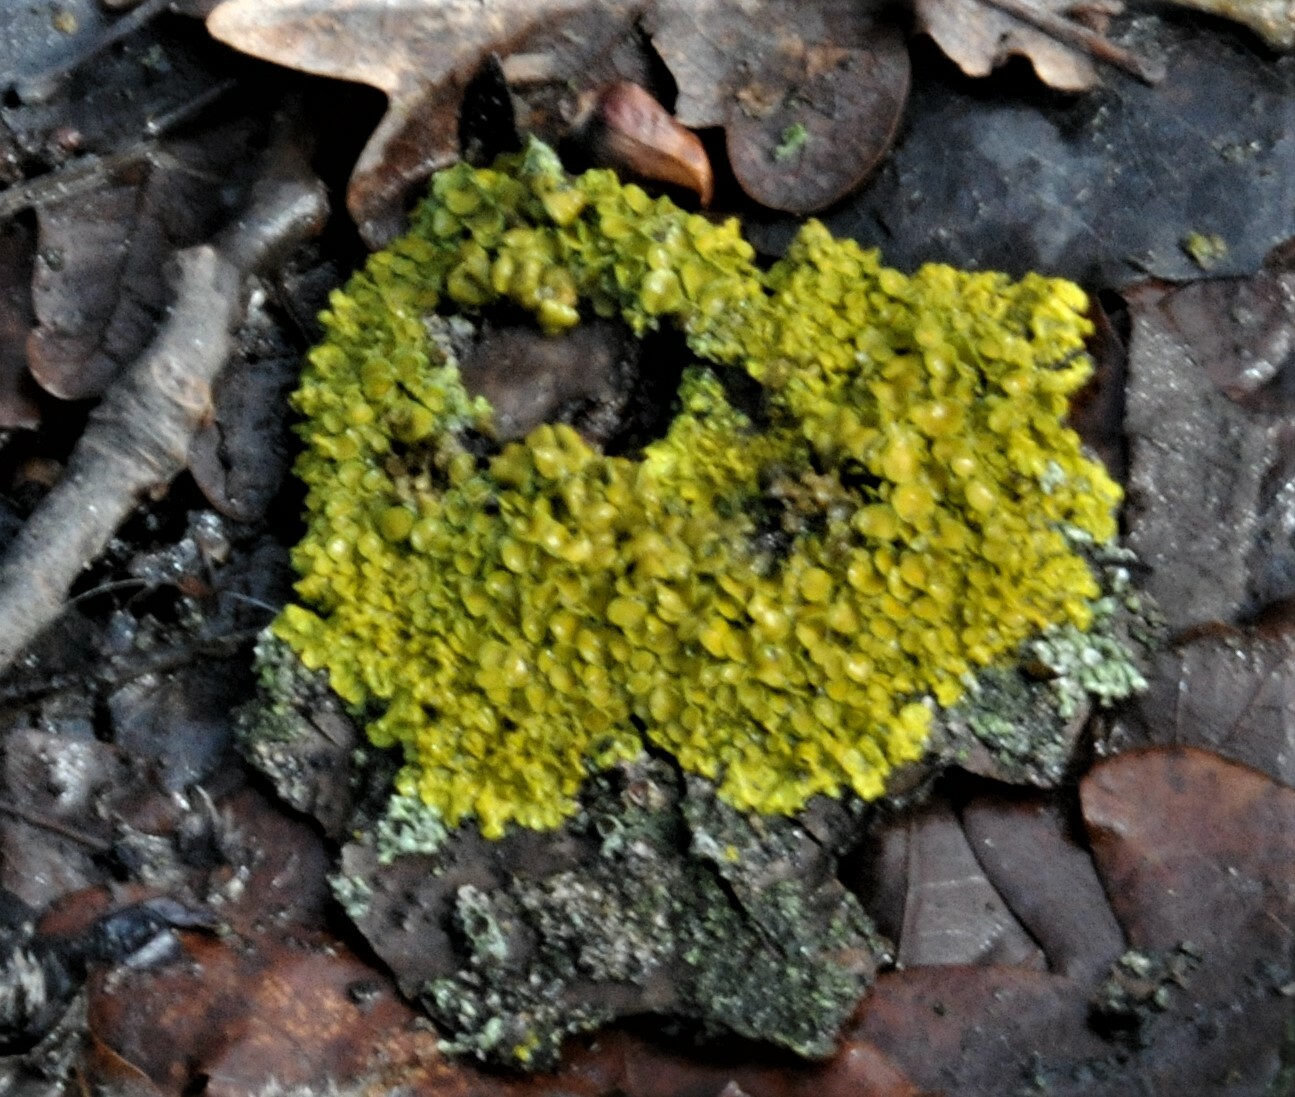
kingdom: Fungi
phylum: Ascomycota
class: Lecanoromycetes
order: Teloschistales
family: Teloschistaceae
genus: Xanthoria
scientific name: Xanthoria parietina
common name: Common orange lichen
